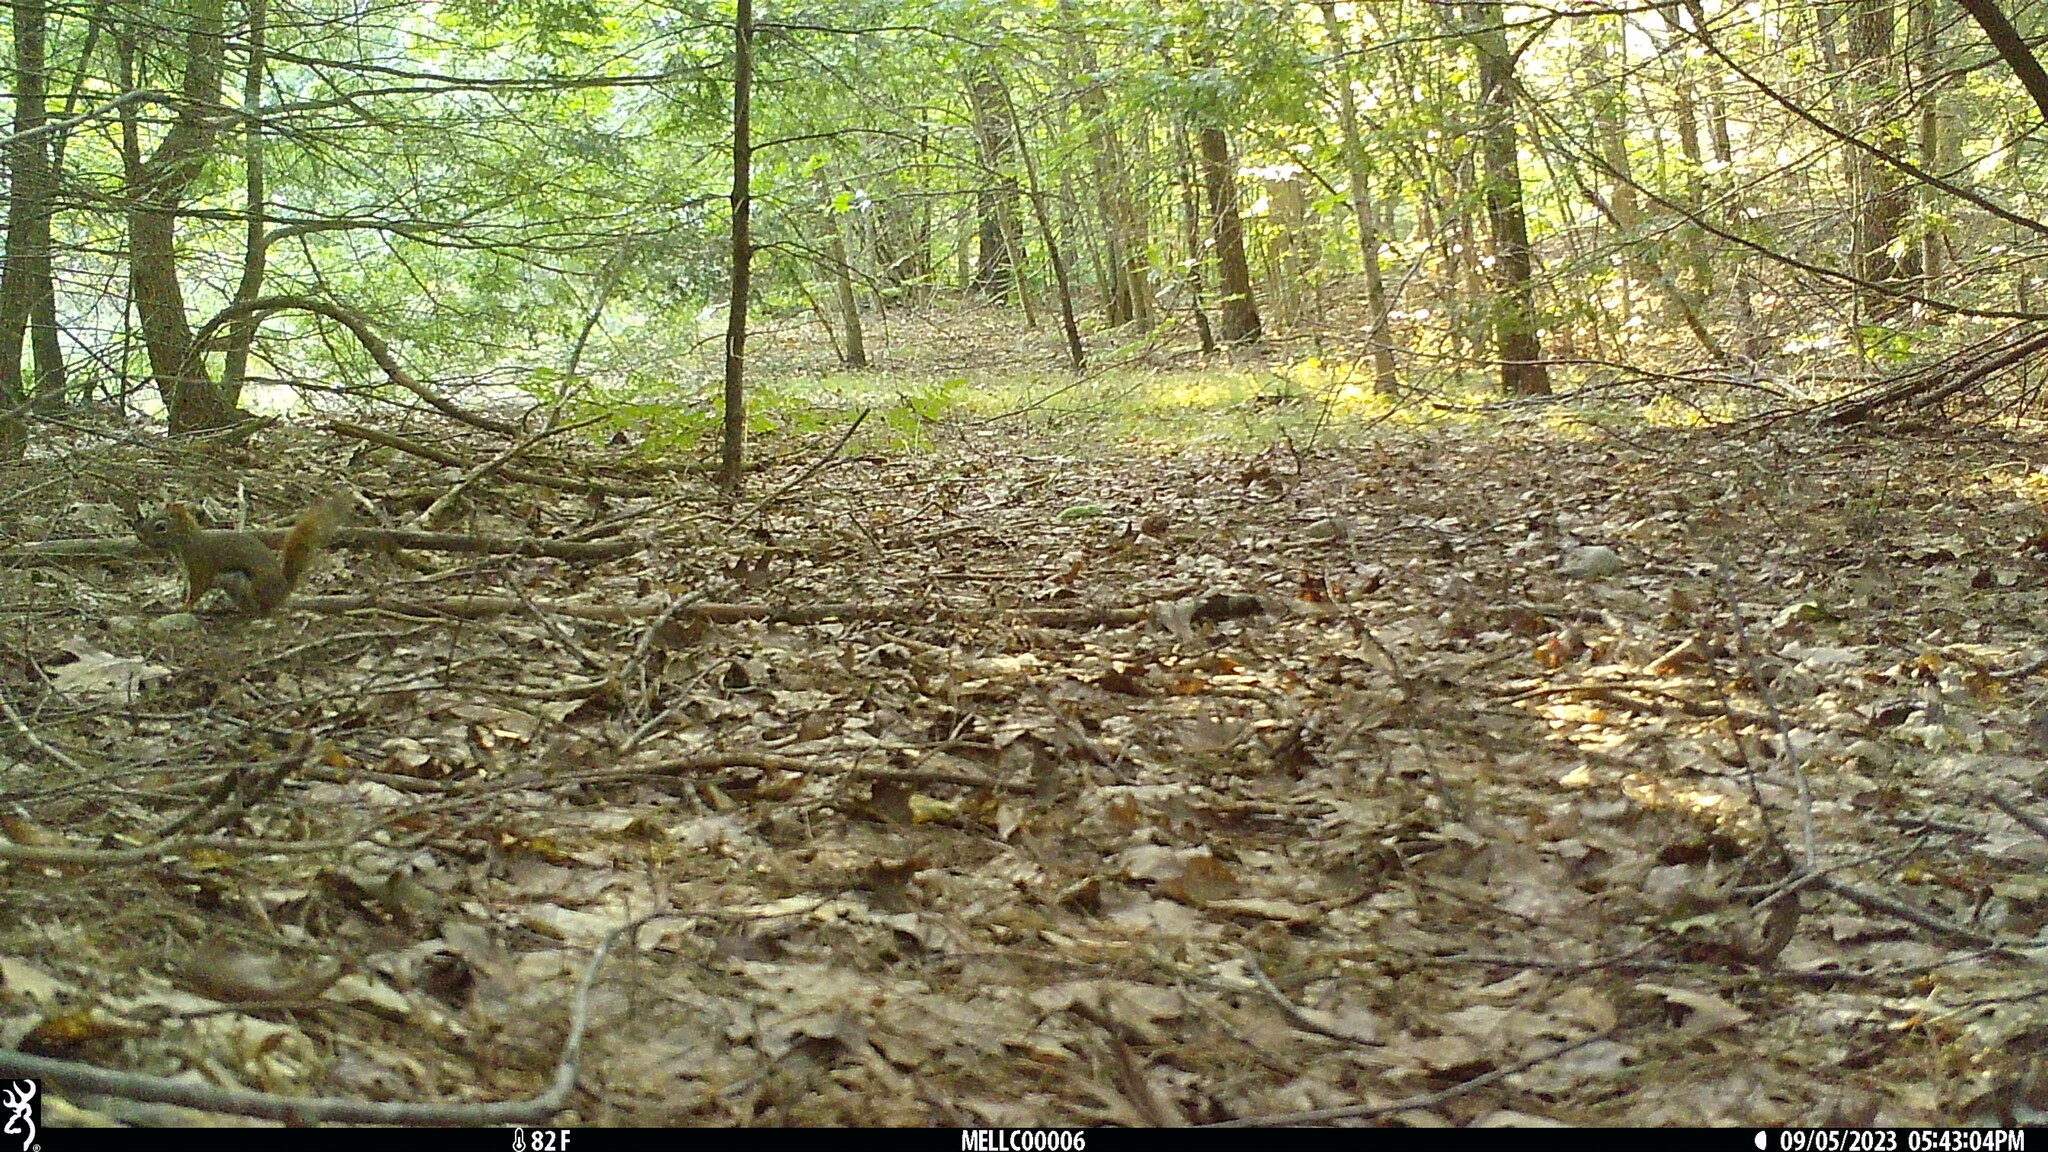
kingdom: Animalia
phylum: Chordata
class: Mammalia
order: Rodentia
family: Sciuridae
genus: Tamiasciurus
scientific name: Tamiasciurus hudsonicus
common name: Red squirrel
